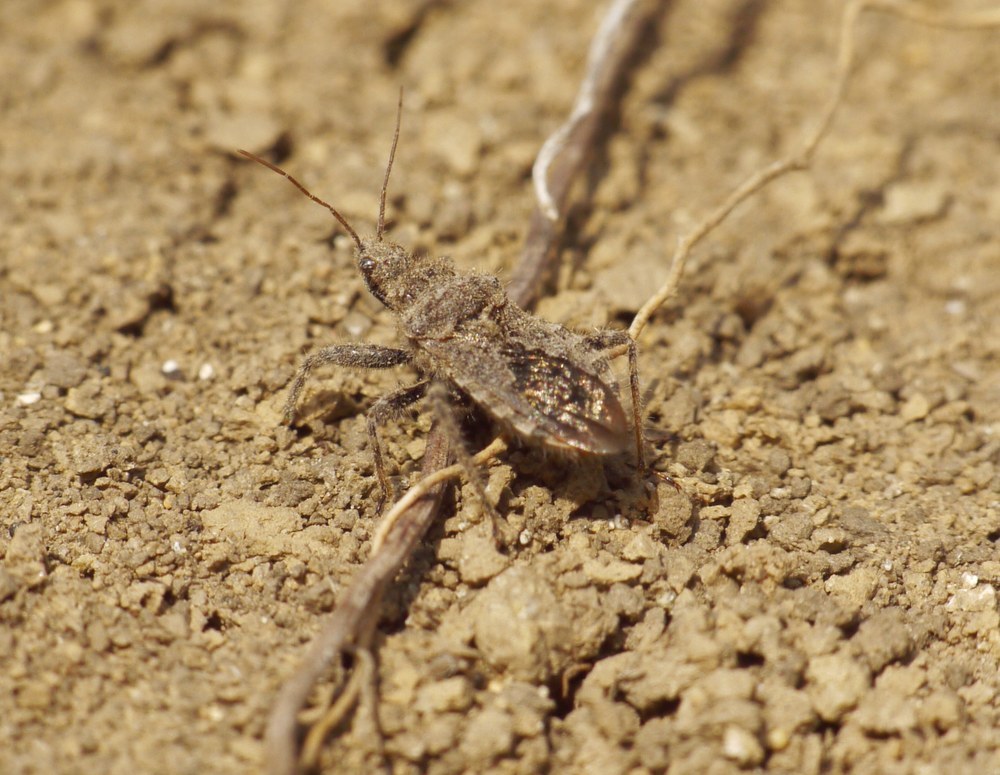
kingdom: Animalia
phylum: Arthropoda
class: Insecta
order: Hemiptera
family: Reduviidae
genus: Coranus
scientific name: Coranus griseus
